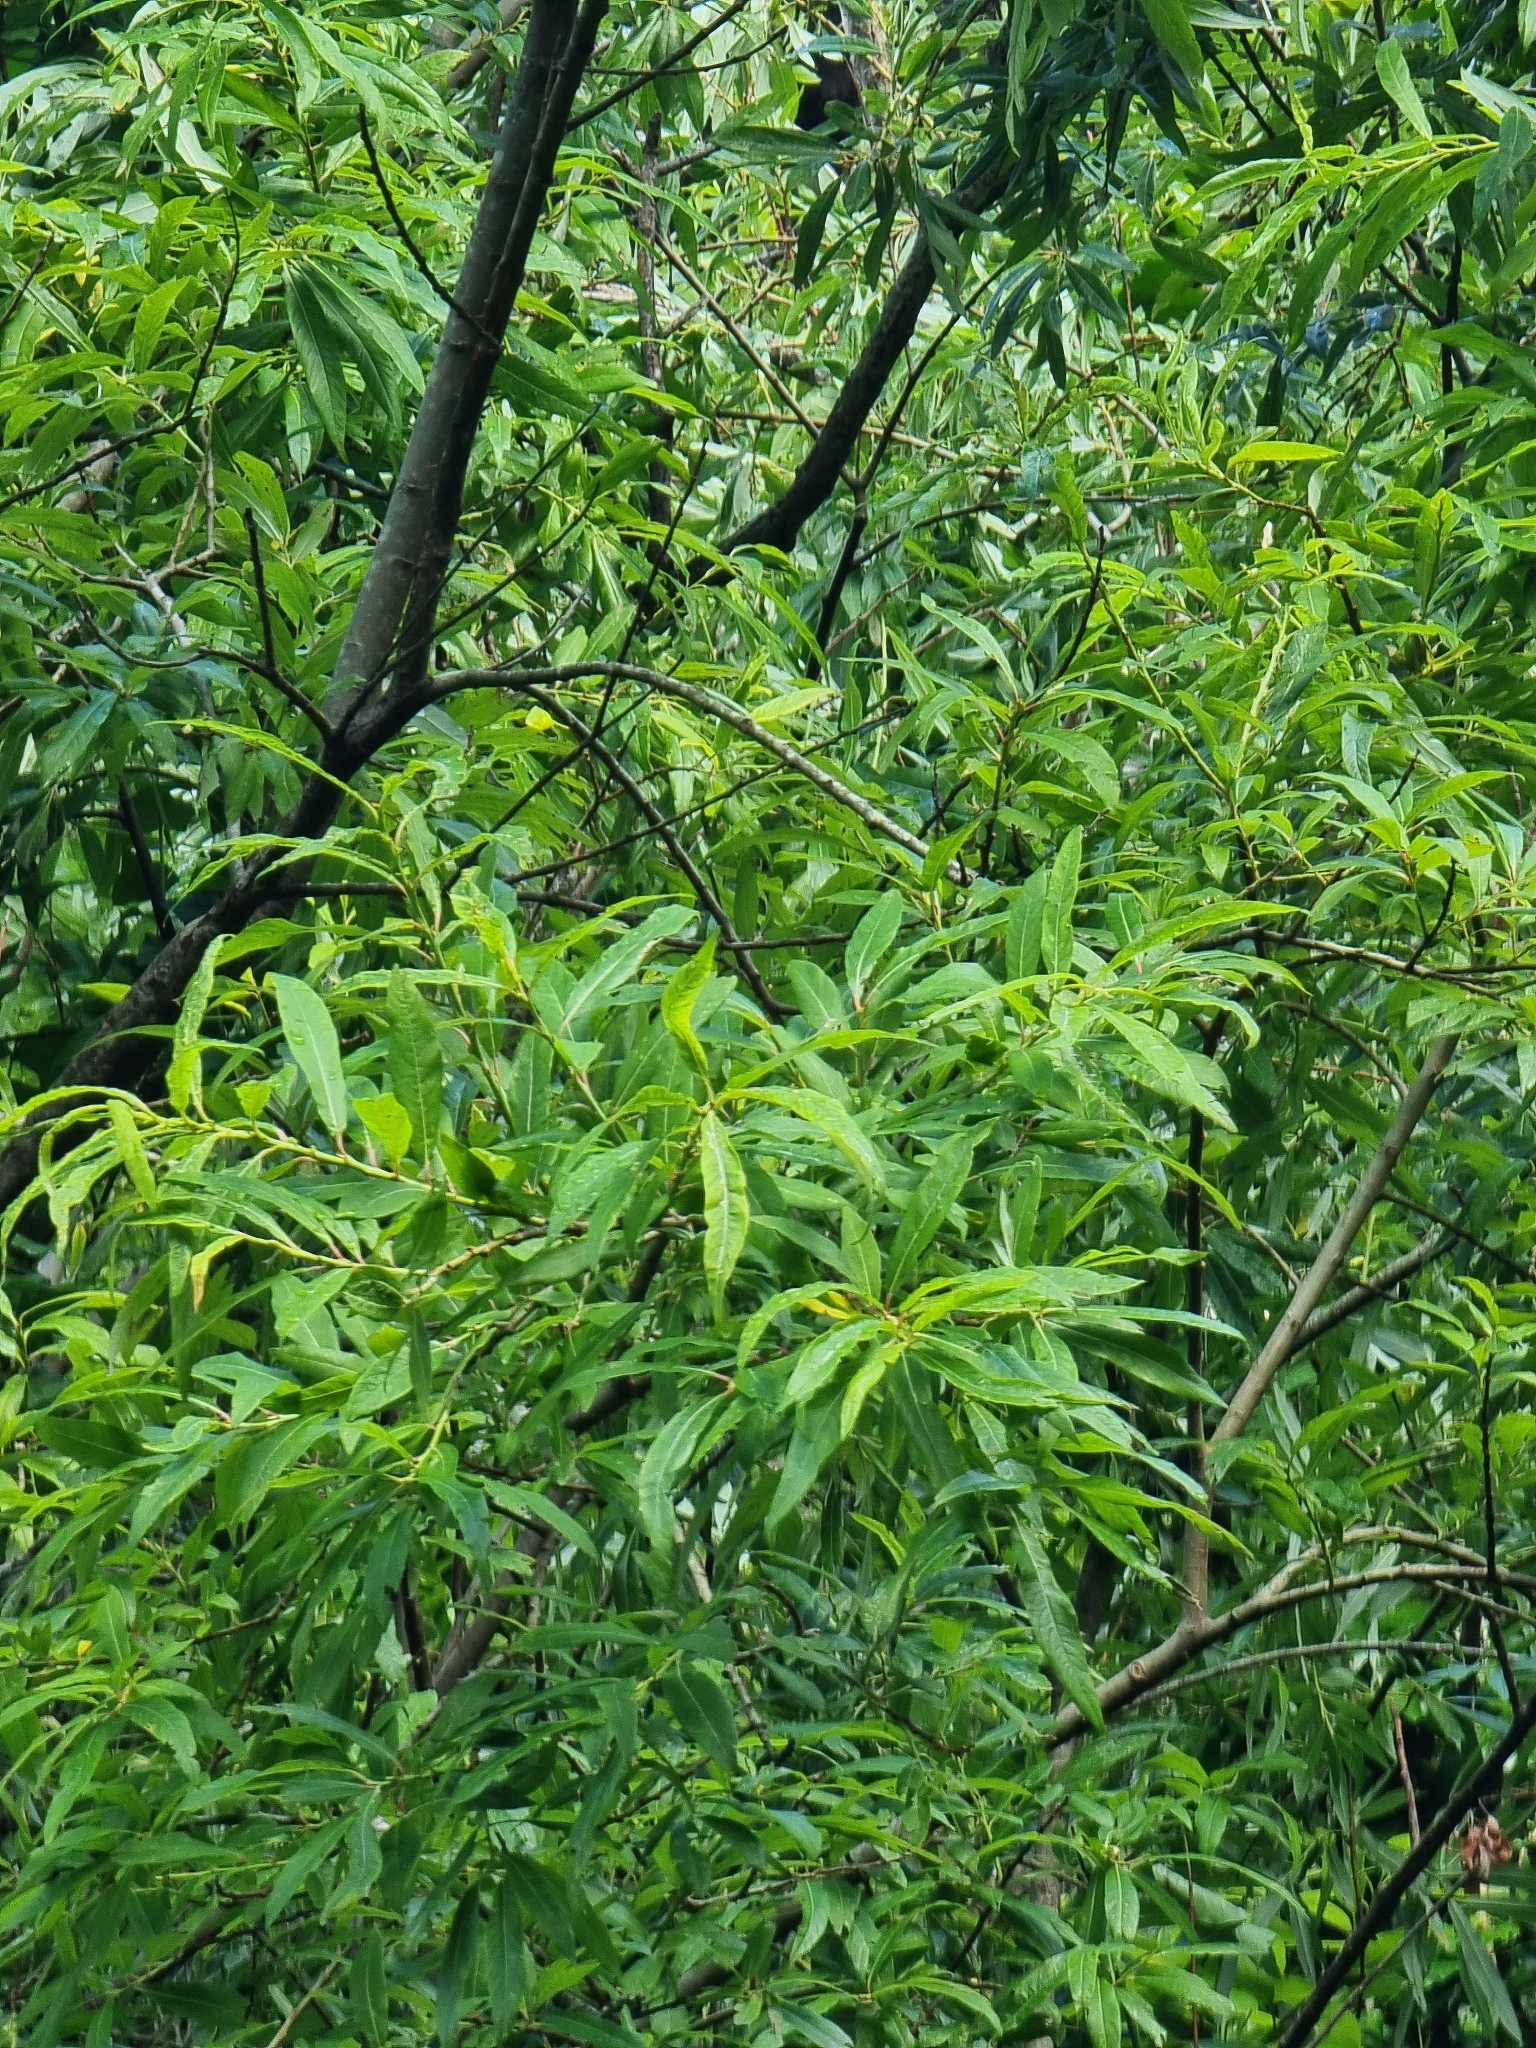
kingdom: Plantae
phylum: Tracheophyta
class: Magnoliopsida
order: Malpighiales
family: Salicaceae
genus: Salix
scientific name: Salix canariensis
